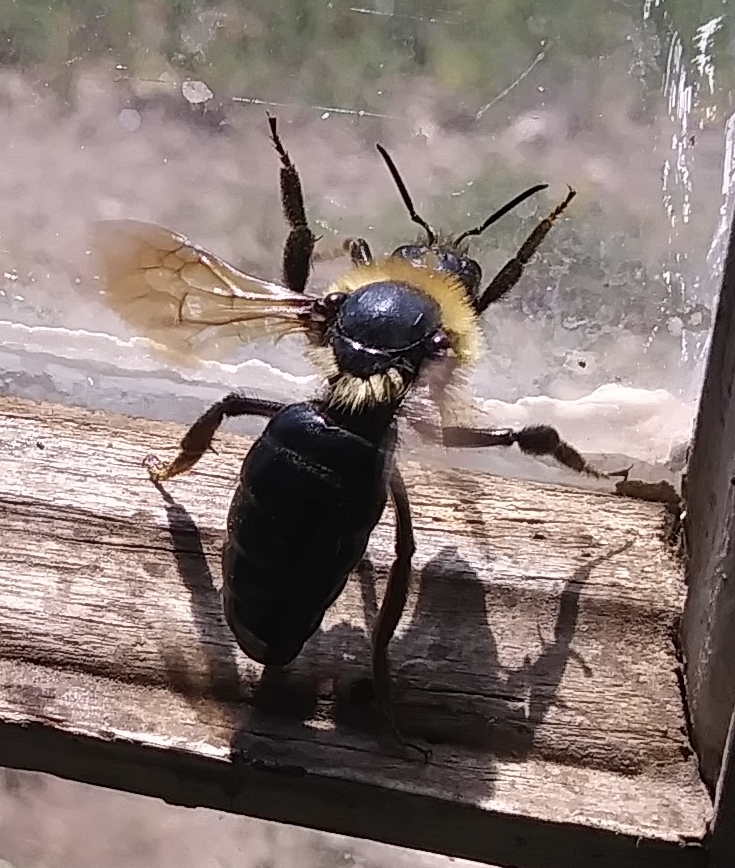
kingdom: Animalia
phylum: Arthropoda
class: Insecta
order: Hymenoptera
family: Apidae
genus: Bombus
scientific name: Bombus
